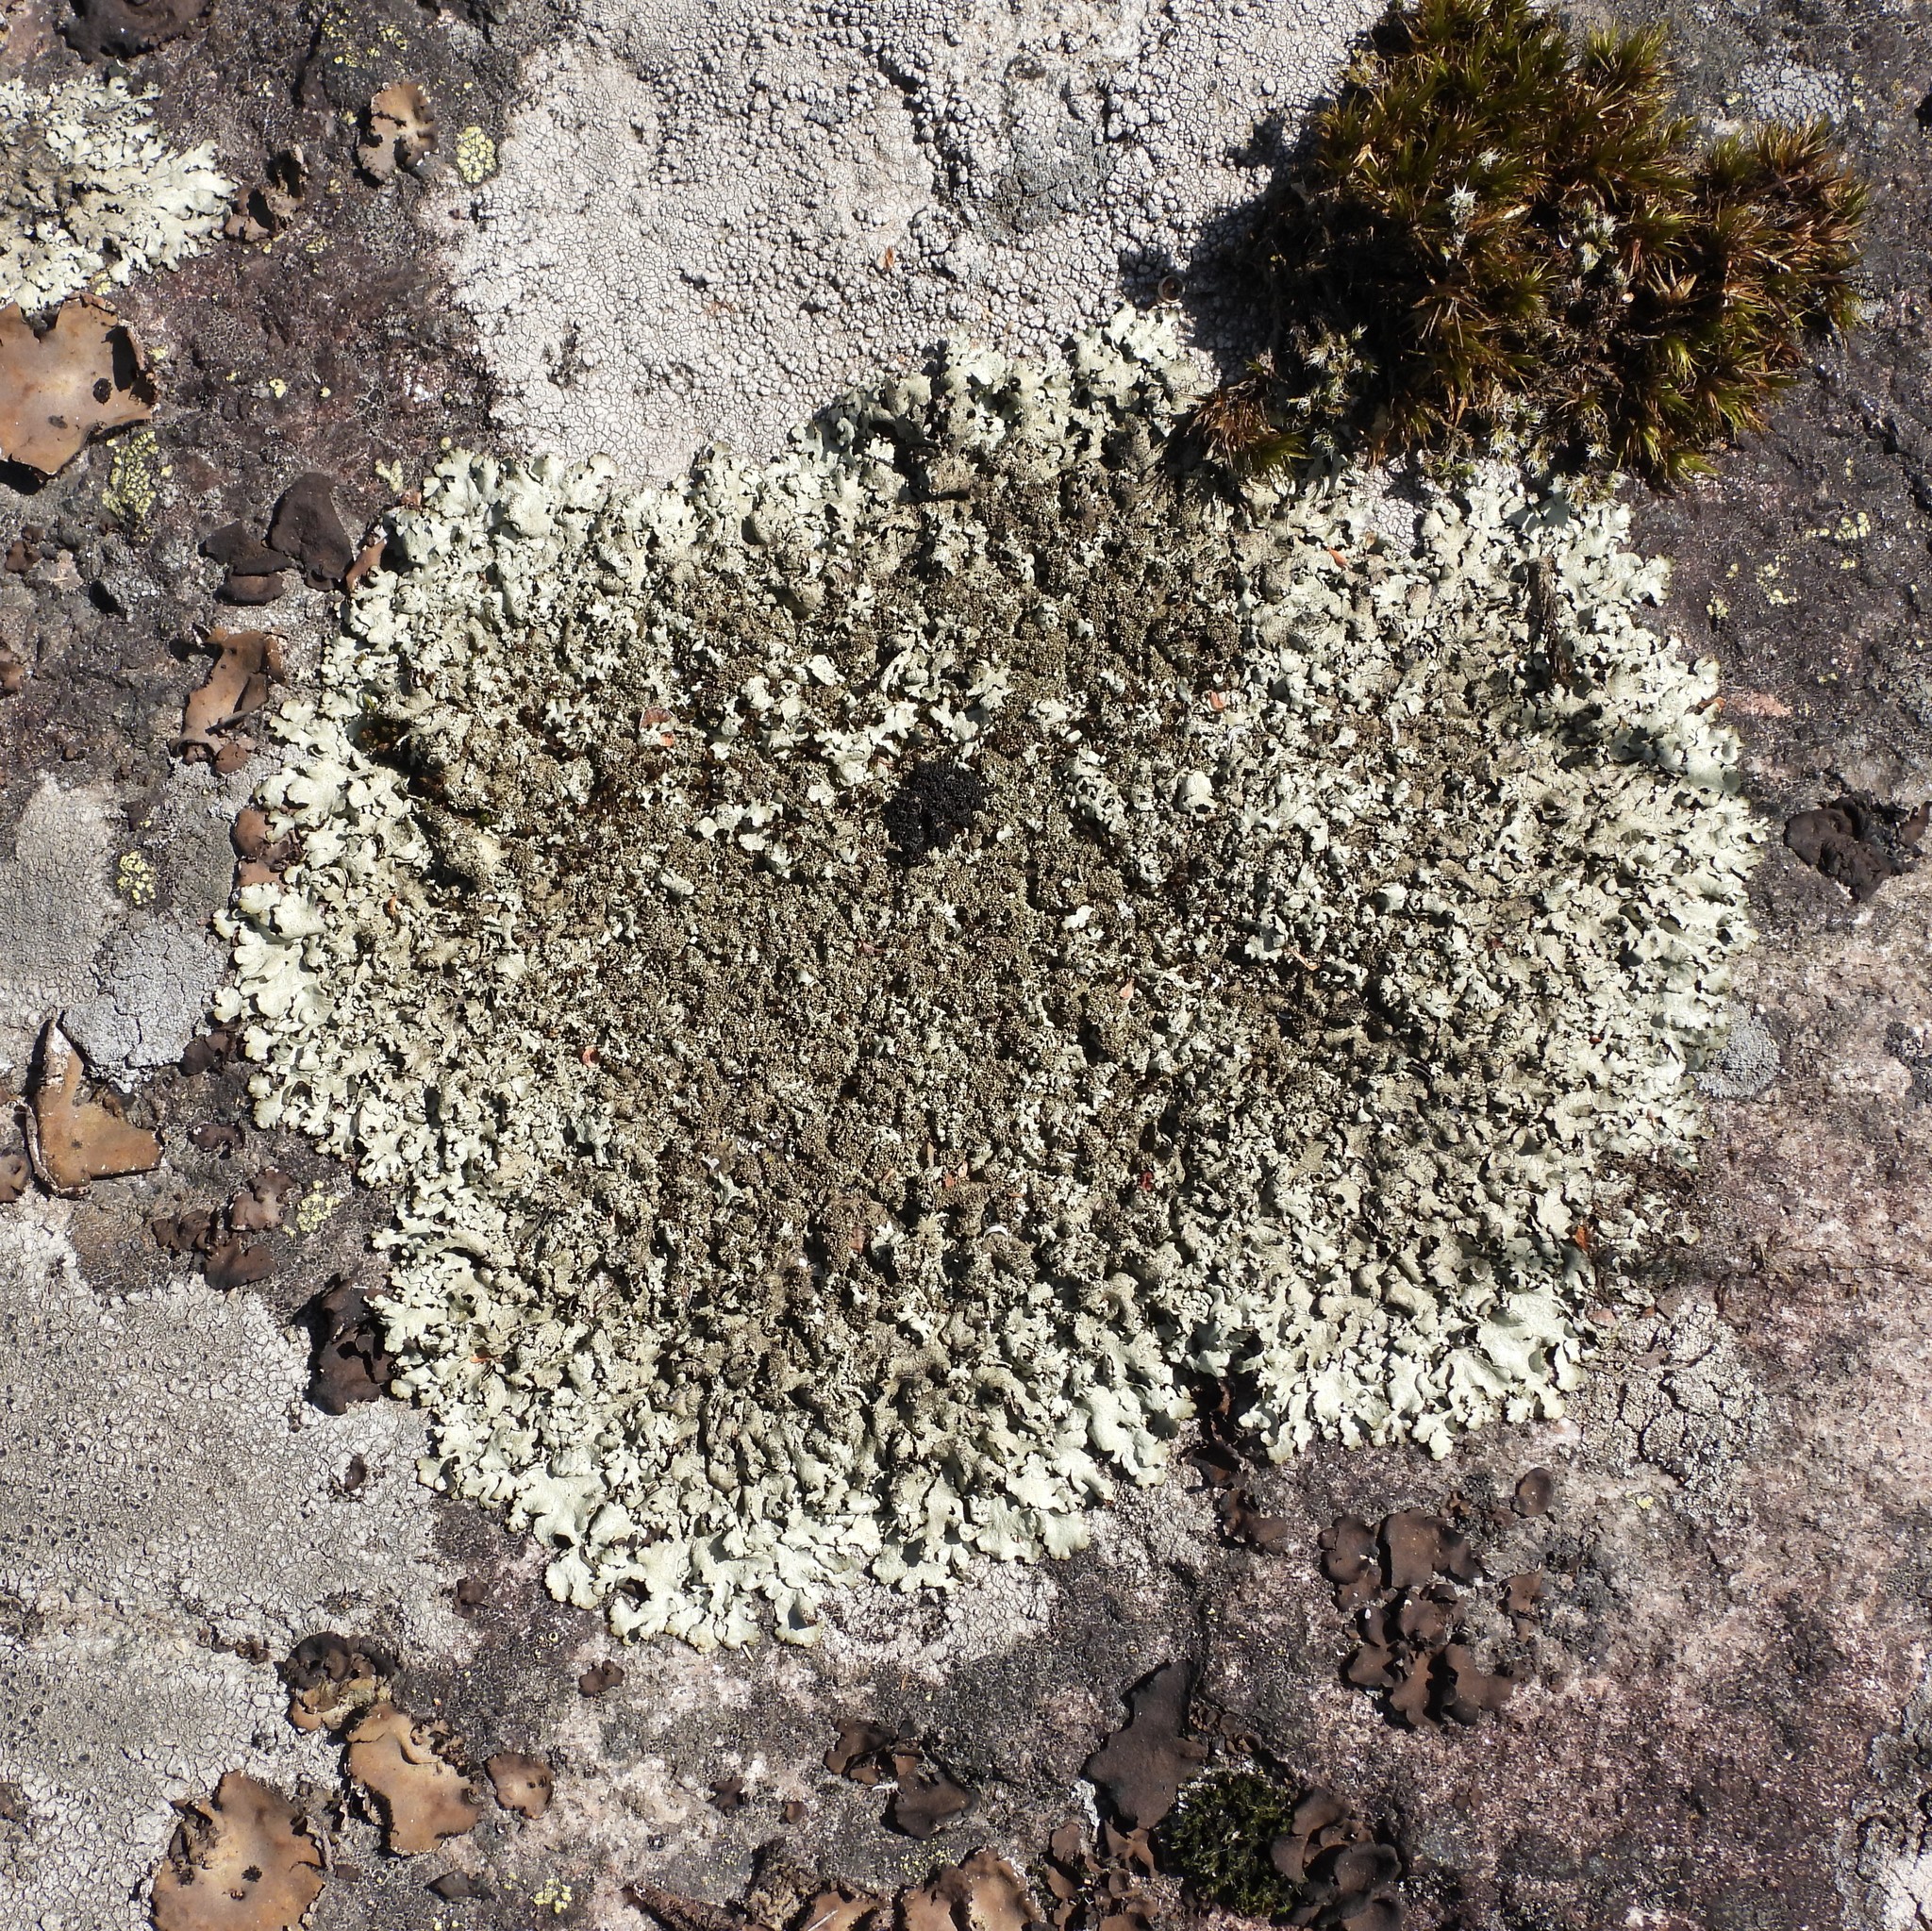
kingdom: Fungi
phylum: Ascomycota
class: Lecanoromycetes
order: Lecanorales
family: Parmeliaceae
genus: Xanthoparmelia
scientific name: Xanthoparmelia conspersa
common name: Peppered rock shield
